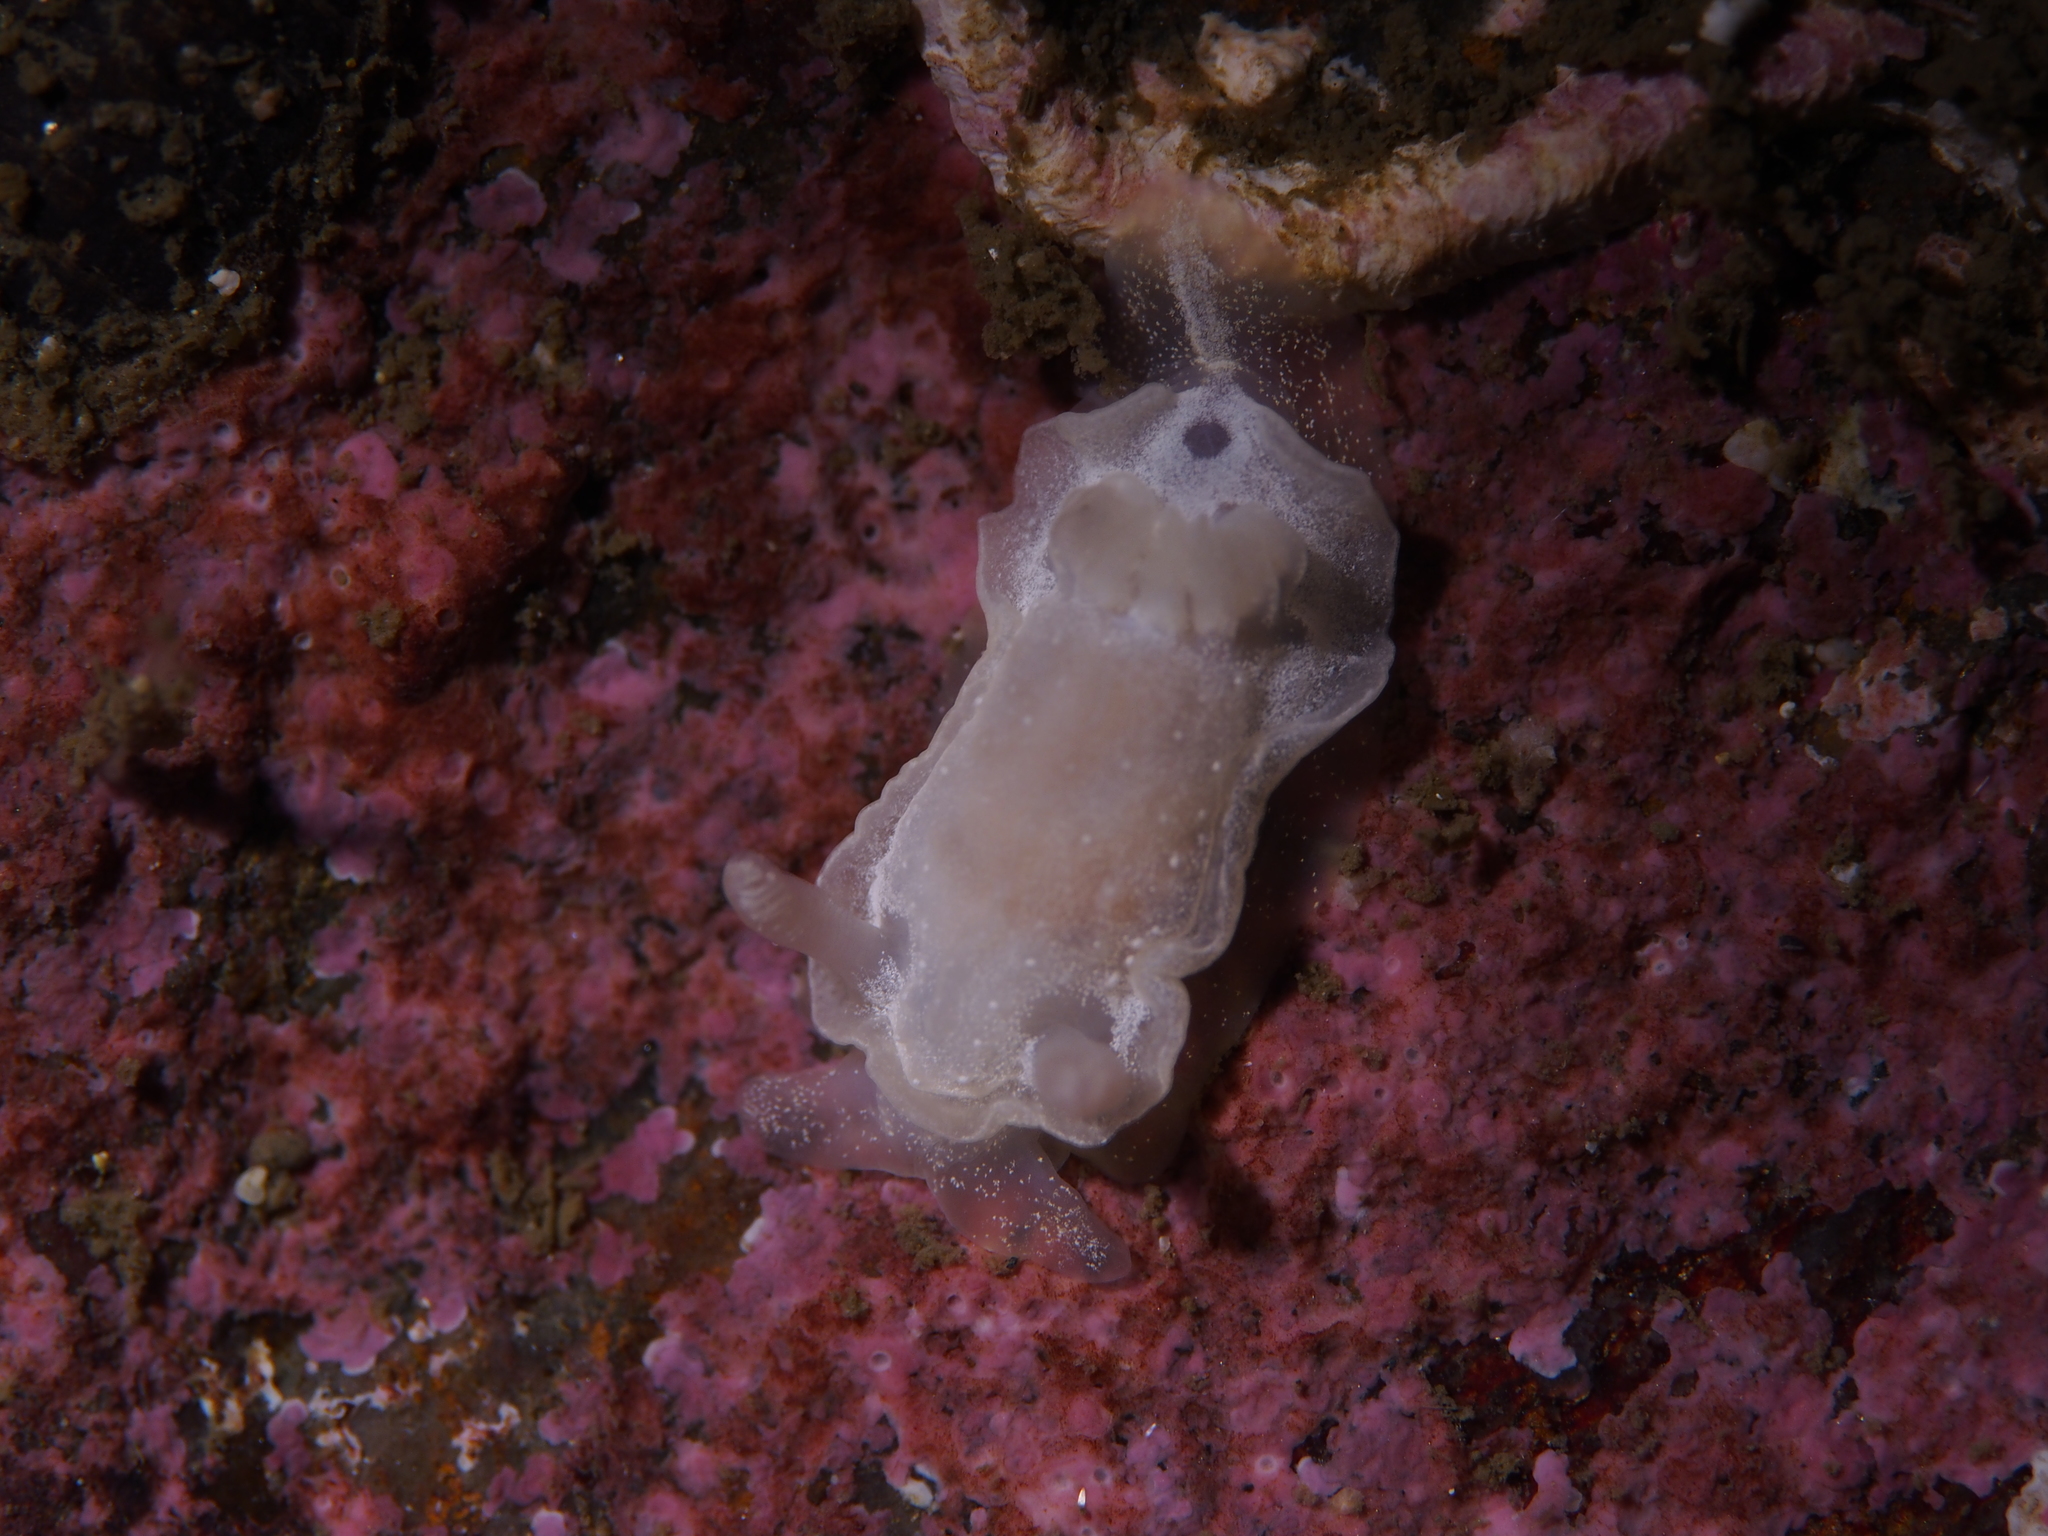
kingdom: Animalia
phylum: Mollusca
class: Gastropoda
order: Nudibranchia
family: Goniodorididae
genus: Okenia
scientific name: Okenia
